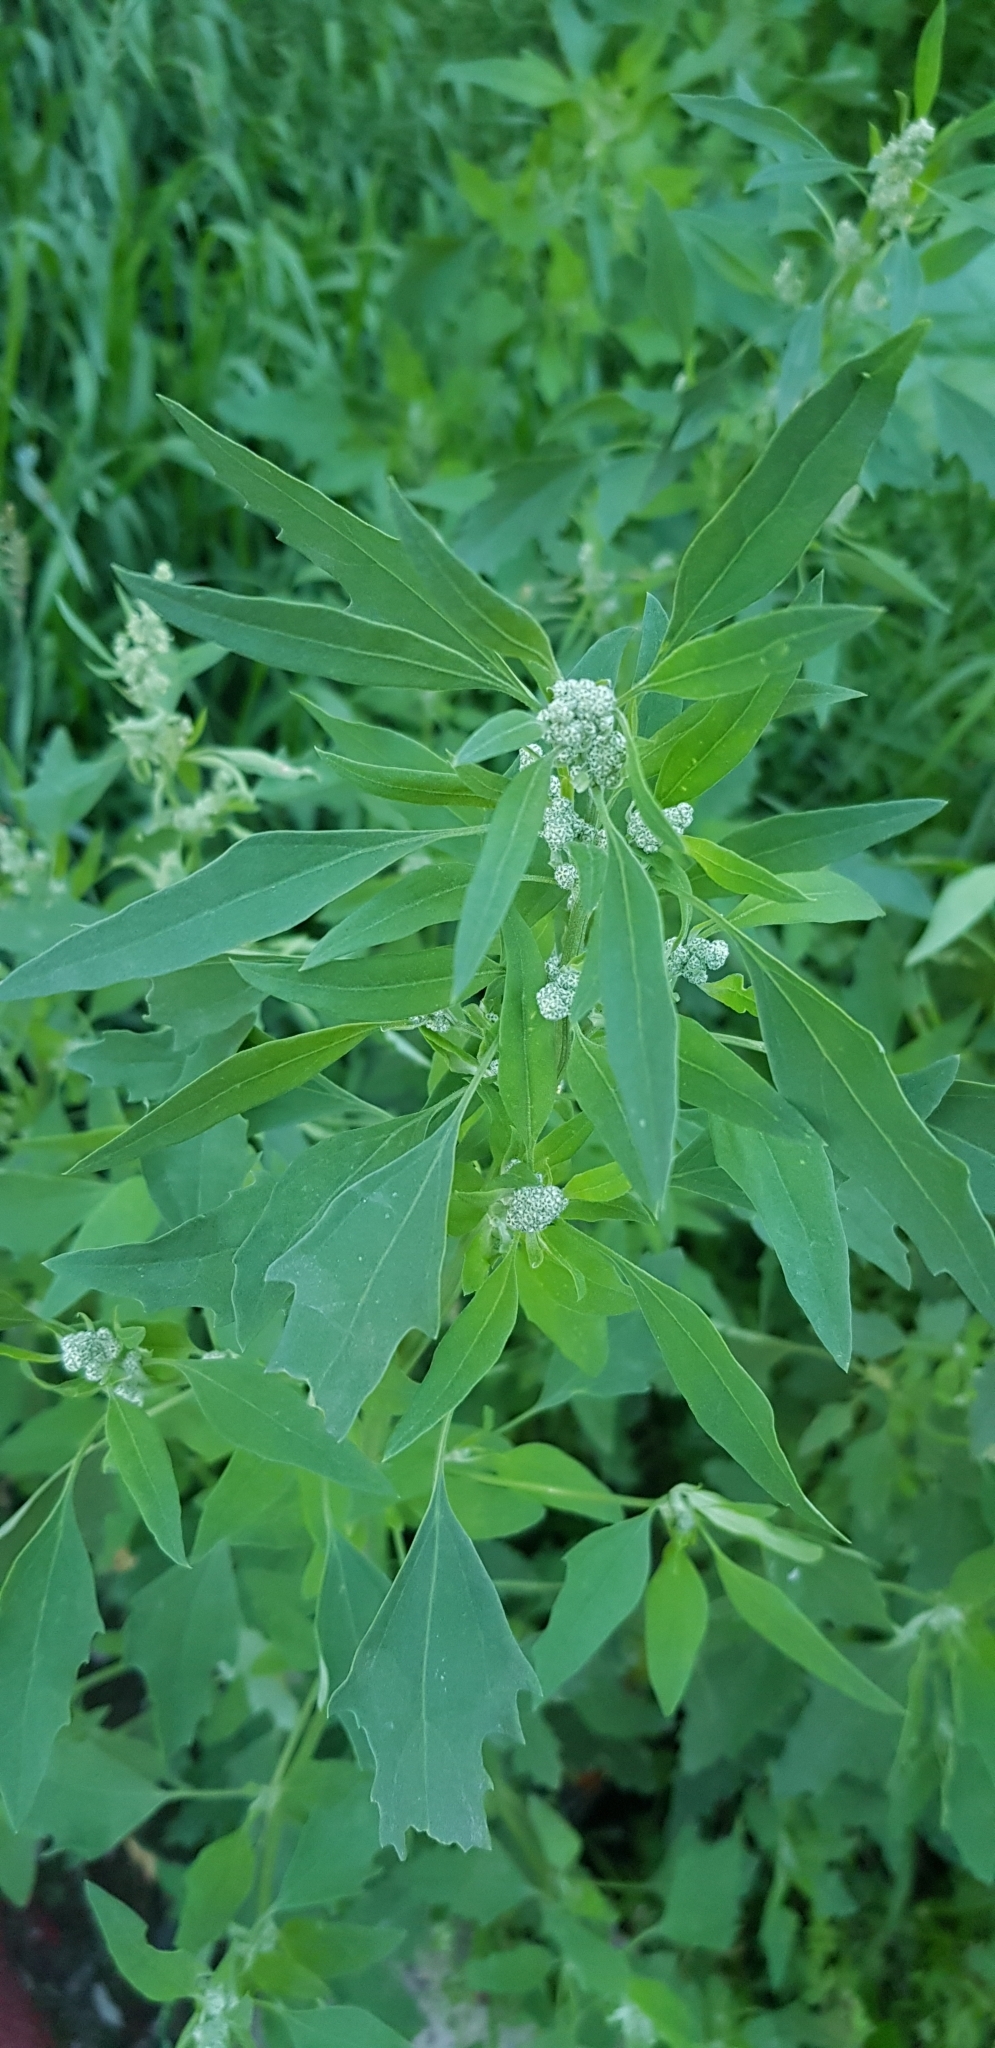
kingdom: Plantae
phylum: Tracheophyta
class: Magnoliopsida
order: Caryophyllales
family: Amaranthaceae
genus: Chenopodium
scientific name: Chenopodium album
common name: Fat-hen
